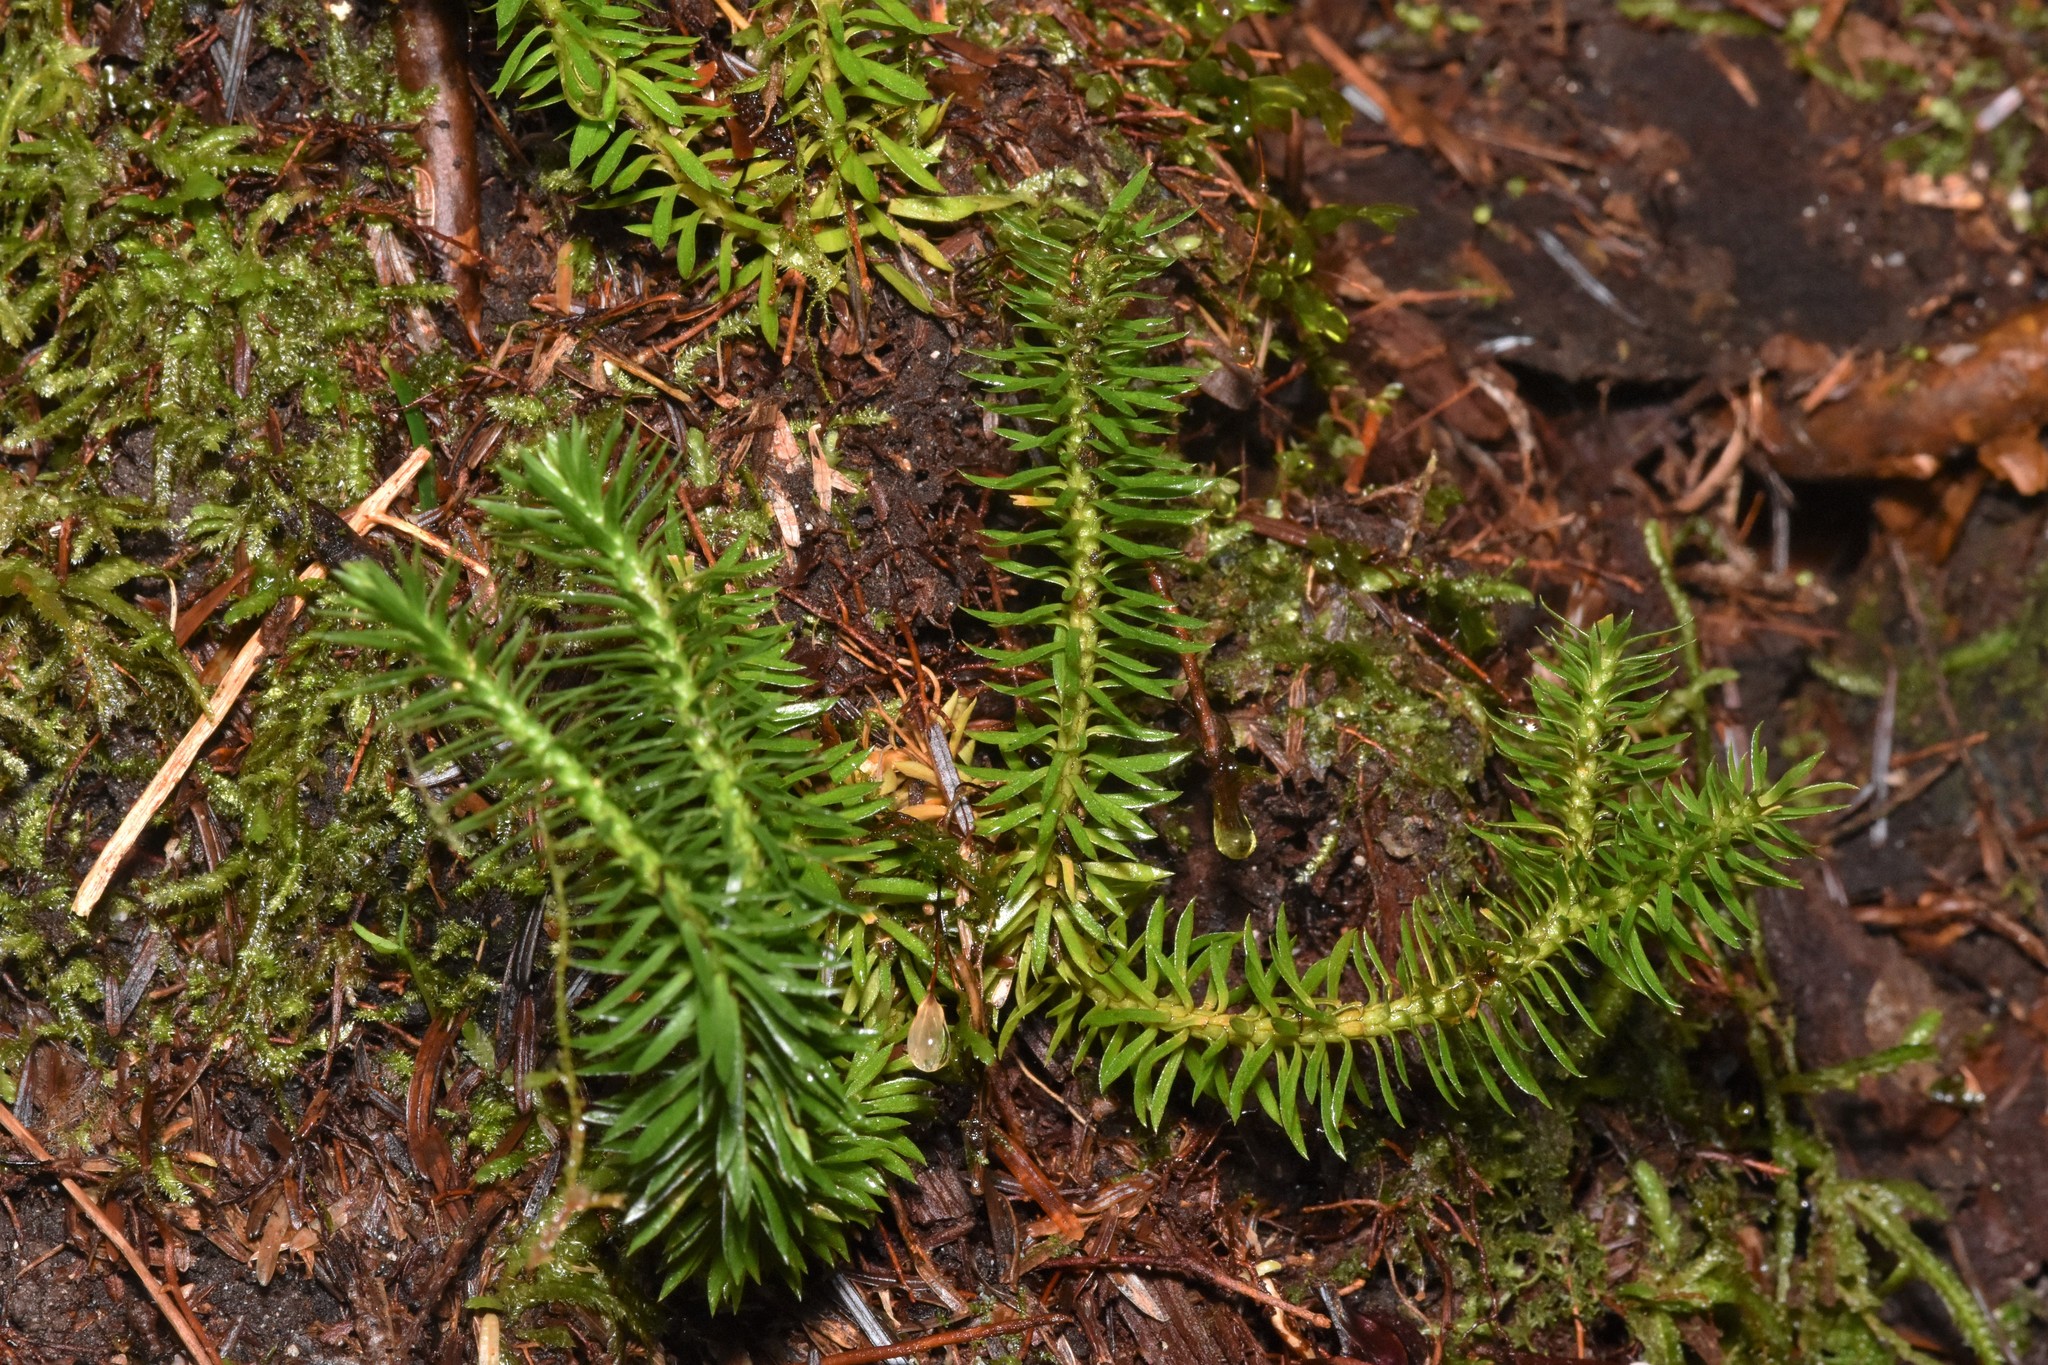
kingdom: Plantae
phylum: Tracheophyta
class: Lycopodiopsida
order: Lycopodiales
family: Lycopodiaceae
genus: Huperzia
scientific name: Huperzia occidentalis
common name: Western clubmoss
